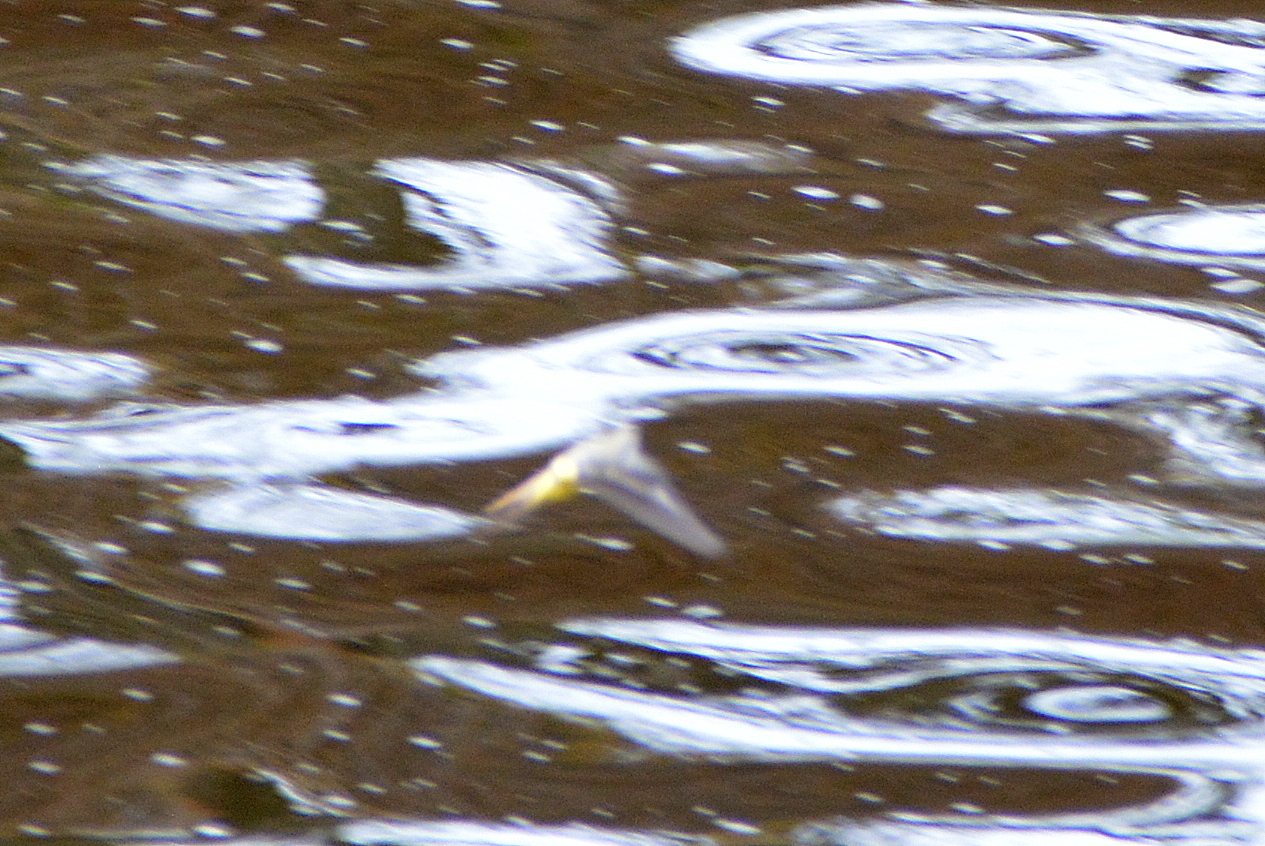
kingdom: Animalia
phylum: Chordata
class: Aves
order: Passeriformes
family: Motacillidae
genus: Motacilla
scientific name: Motacilla cinerea
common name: Grey wagtail
